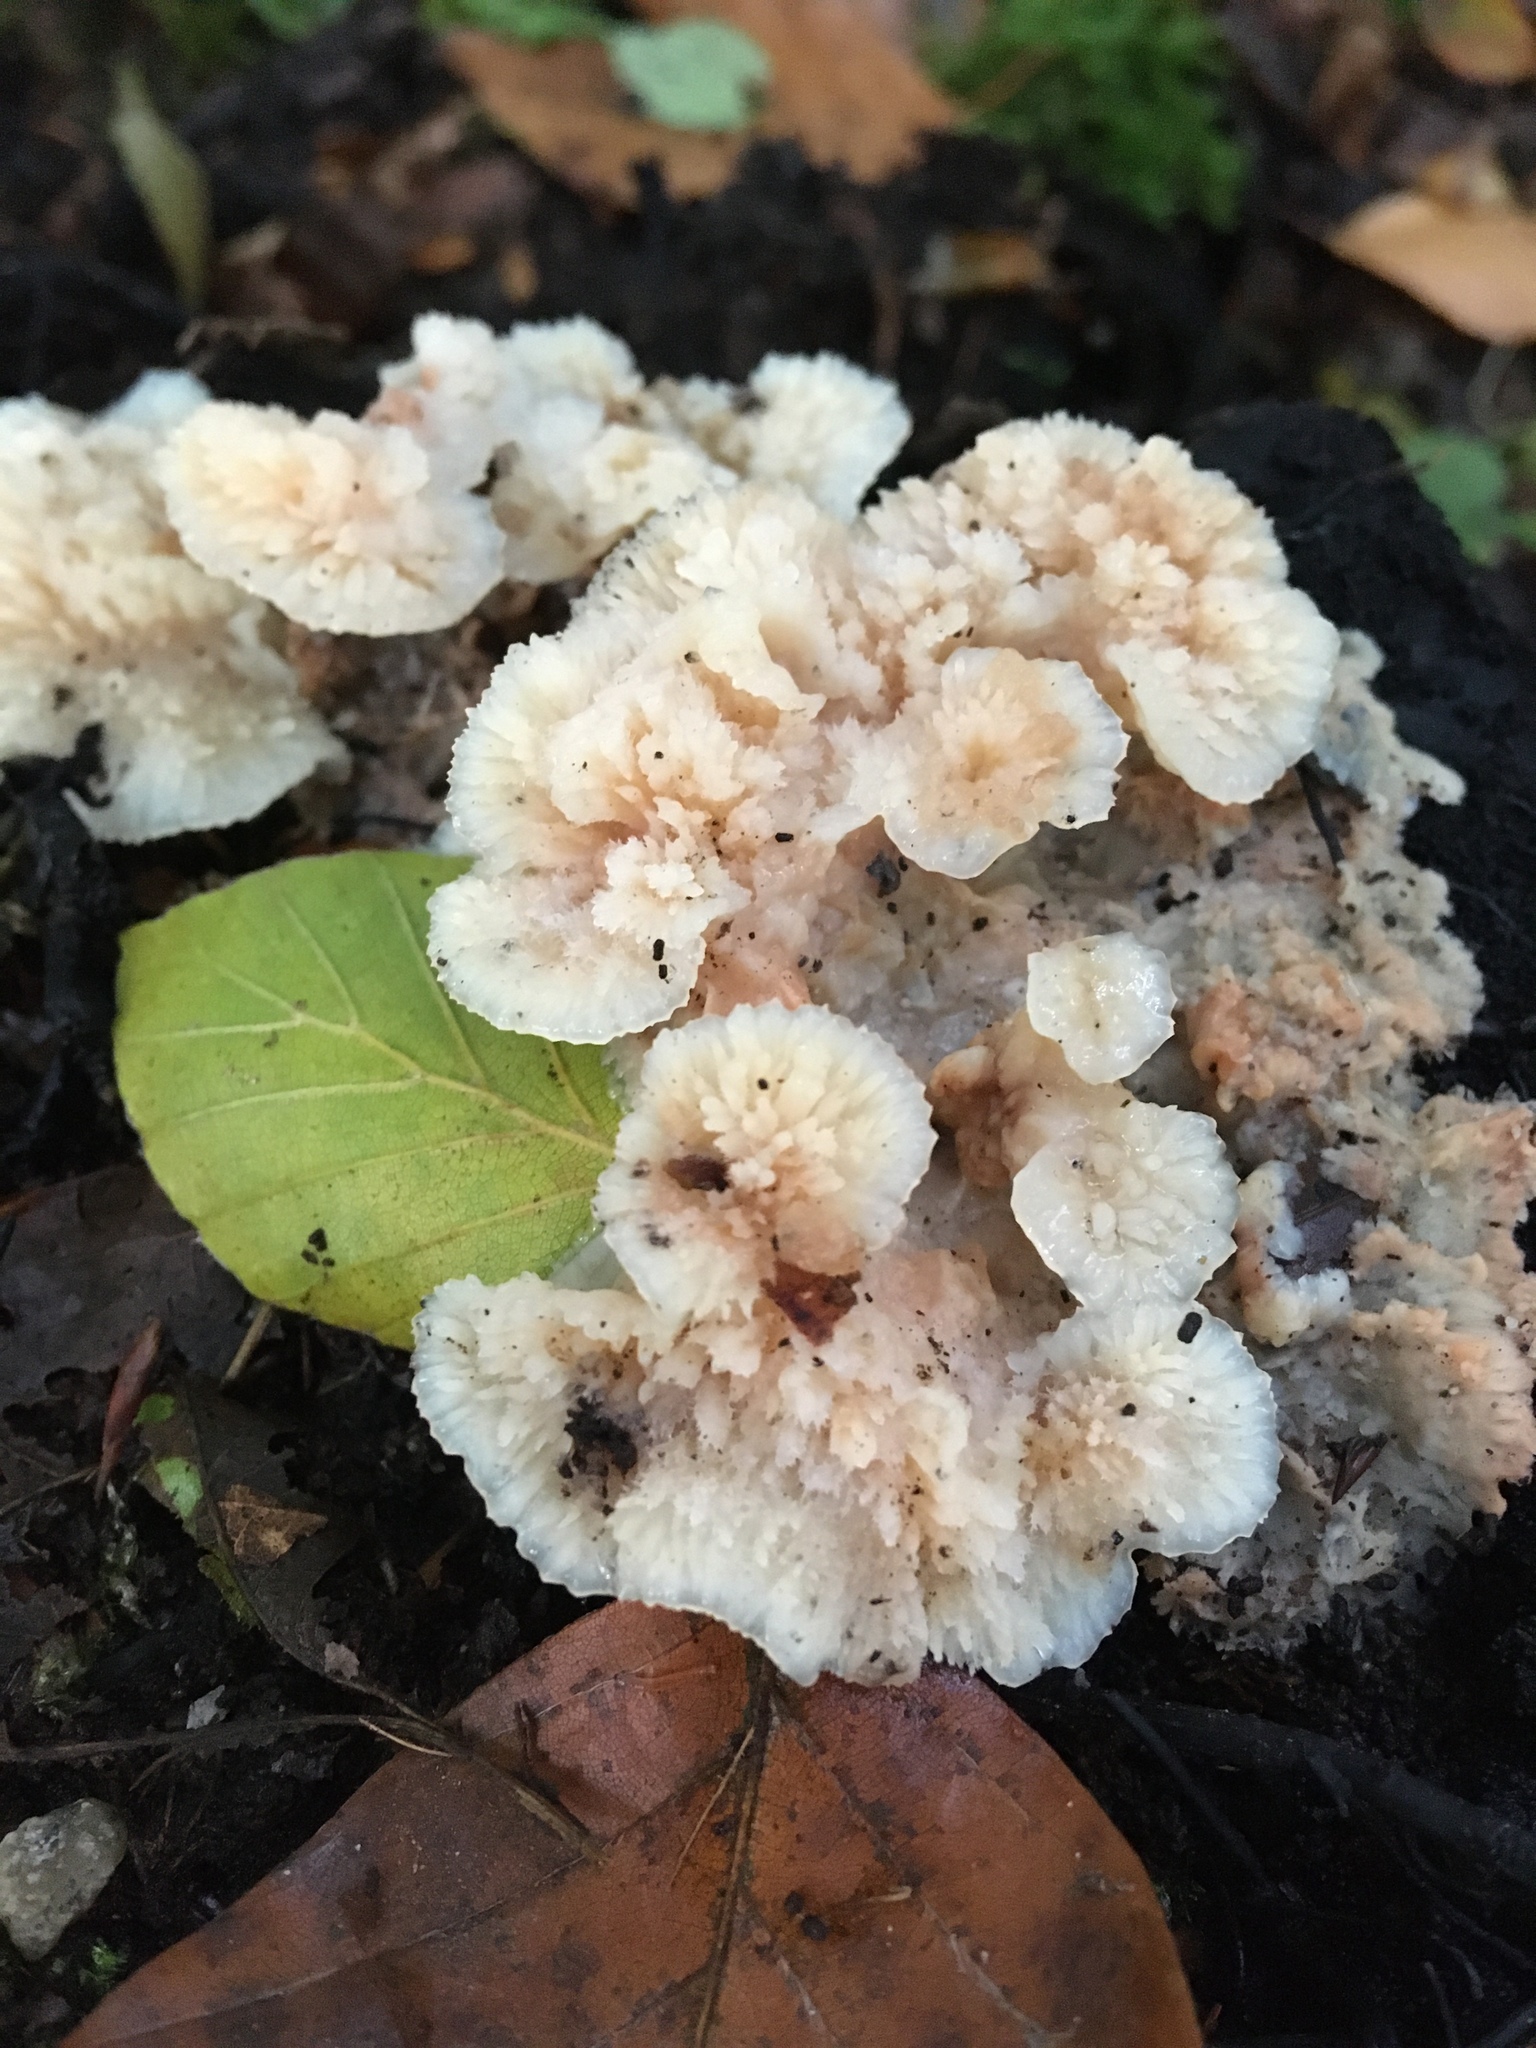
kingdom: Fungi
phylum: Basidiomycota
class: Agaricomycetes
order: Polyporales
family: Meruliaceae
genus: Phlebia
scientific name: Phlebia tremellosa
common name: Jelly rot
